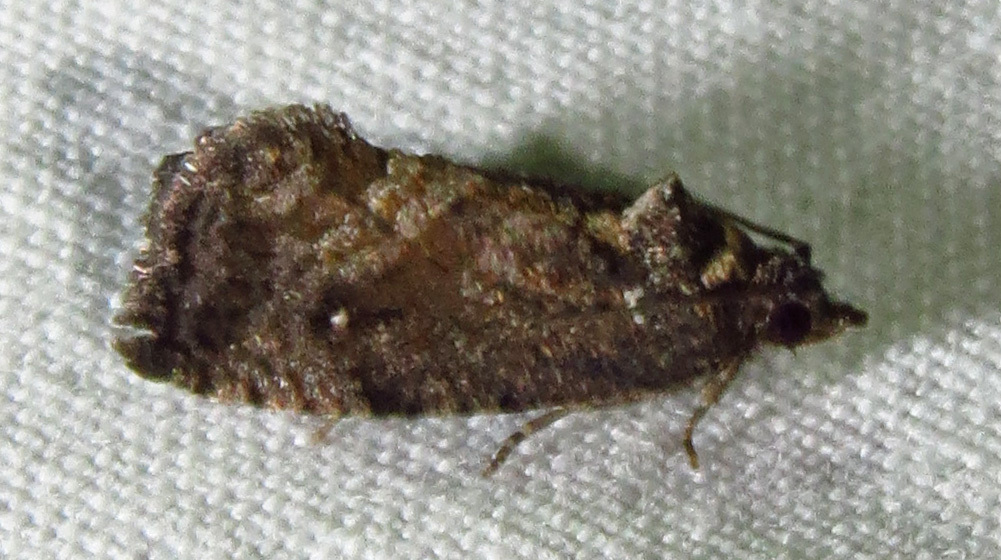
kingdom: Animalia
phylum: Arthropoda
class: Insecta
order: Lepidoptera
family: Tortricidae
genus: Gymnandrosoma
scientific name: Gymnandrosoma punctidiscanum
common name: Dotted ecdytolopha moth
